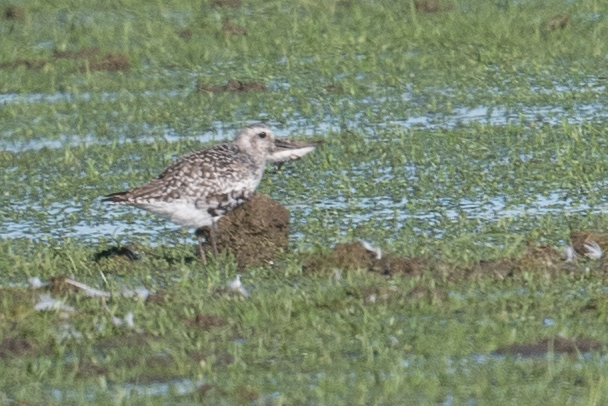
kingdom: Animalia
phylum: Chordata
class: Aves
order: Charadriiformes
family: Charadriidae
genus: Pluvialis
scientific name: Pluvialis squatarola
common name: Grey plover
